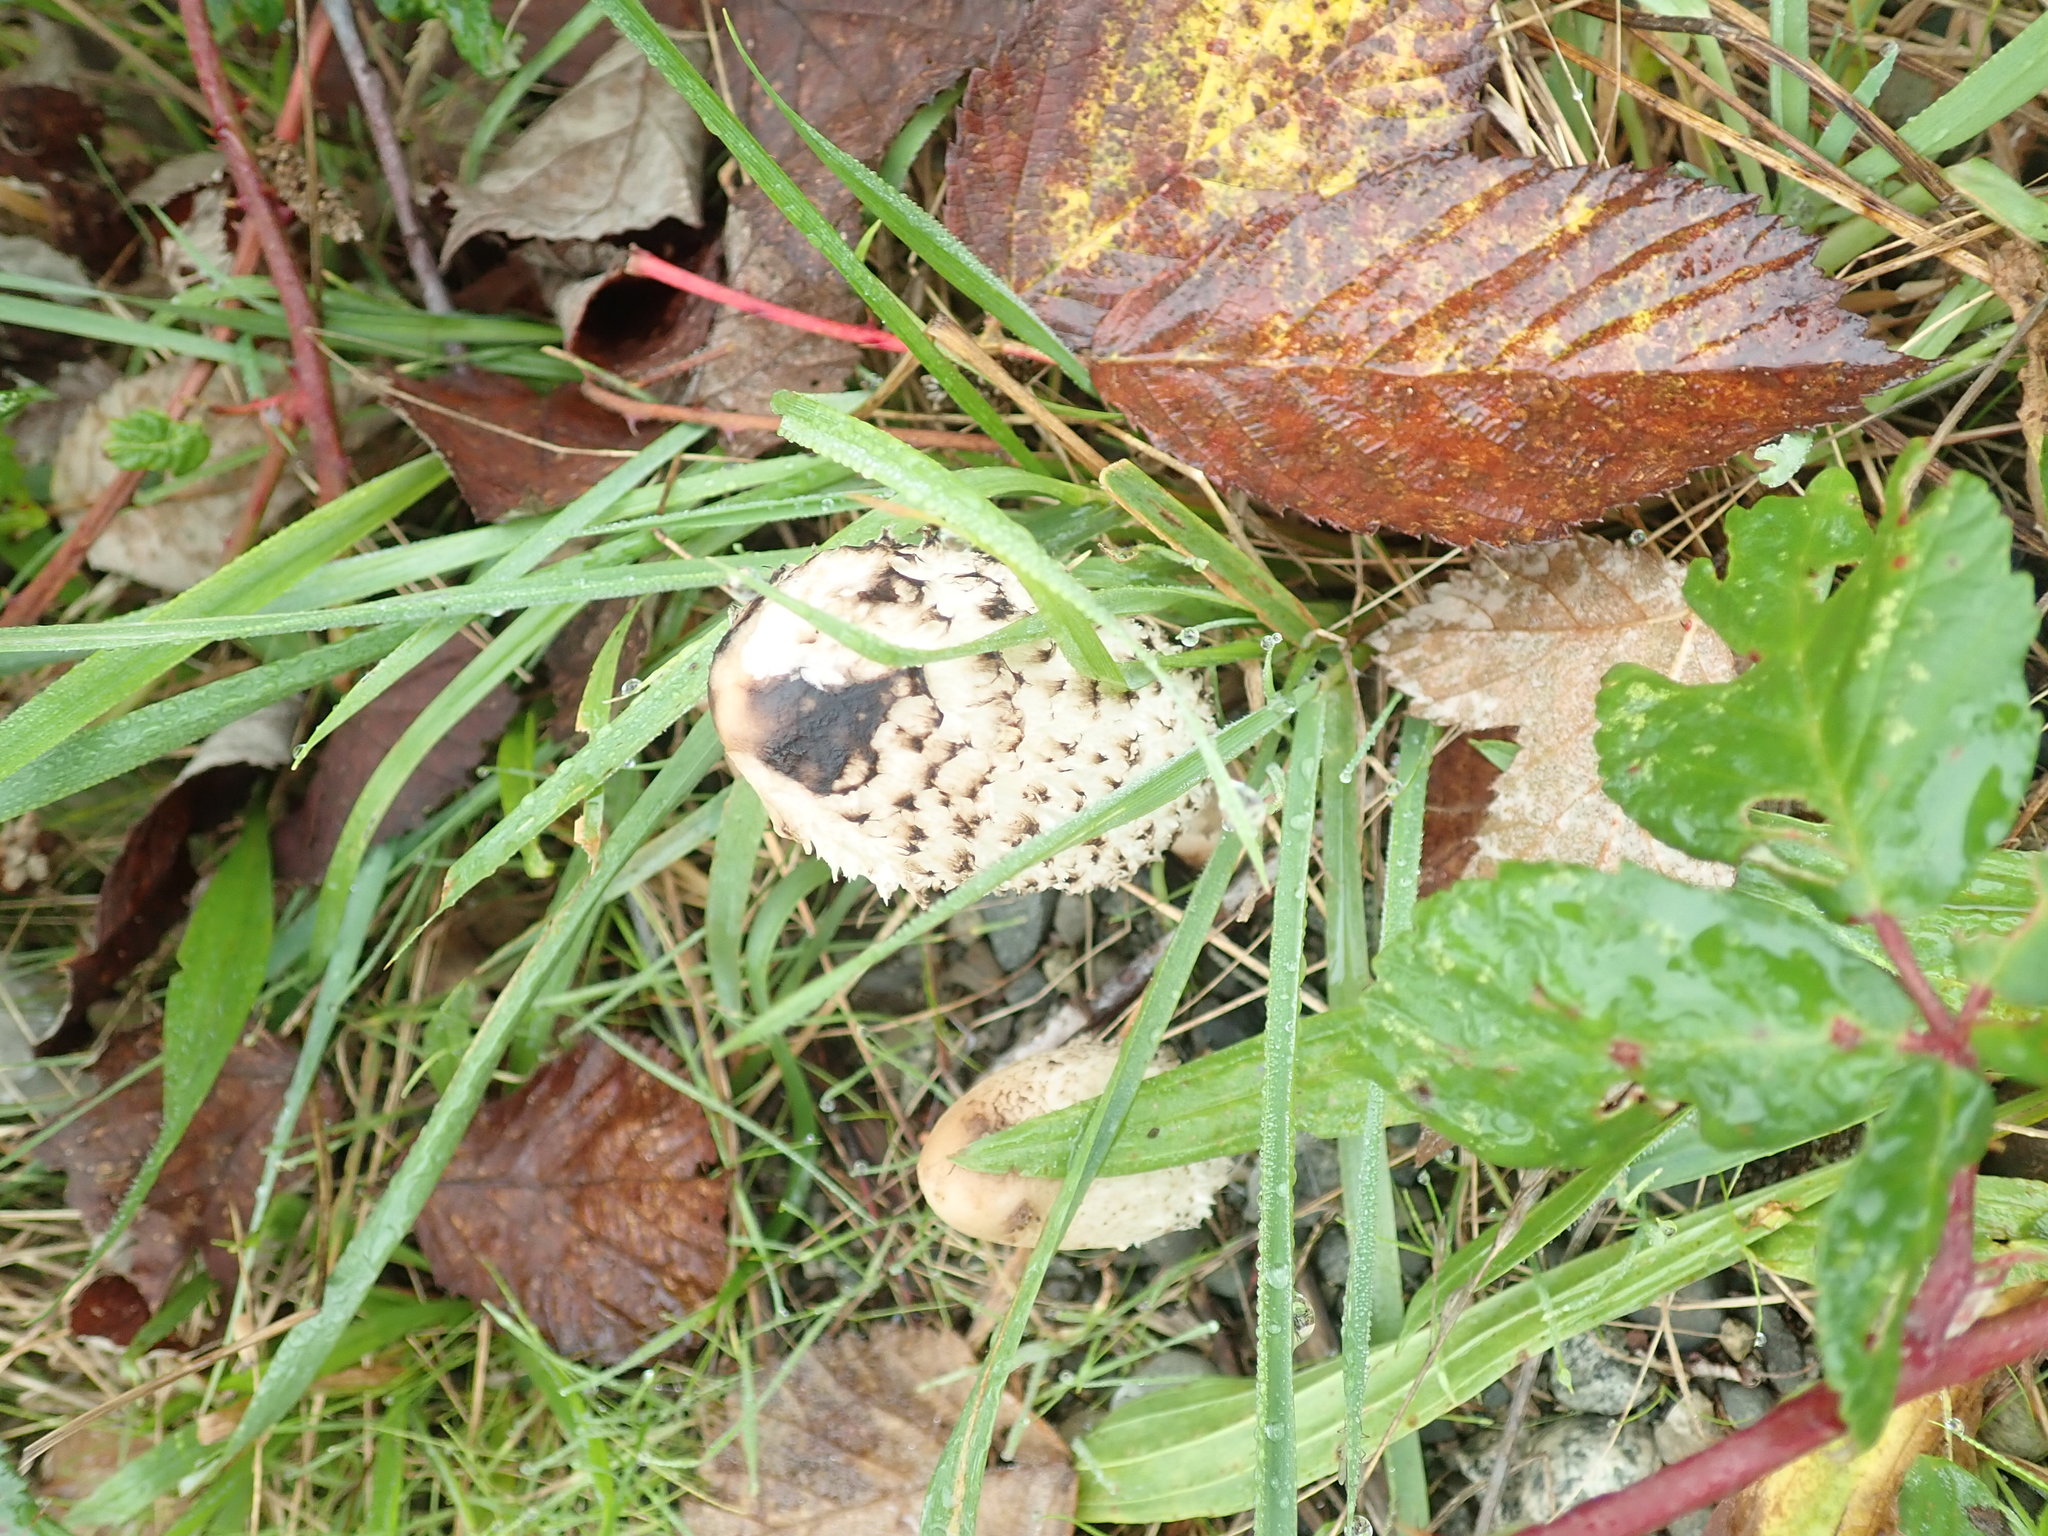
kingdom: Fungi
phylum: Basidiomycota
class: Agaricomycetes
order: Agaricales
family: Agaricaceae
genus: Coprinus
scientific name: Coprinus comatus
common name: Lawyer's wig
